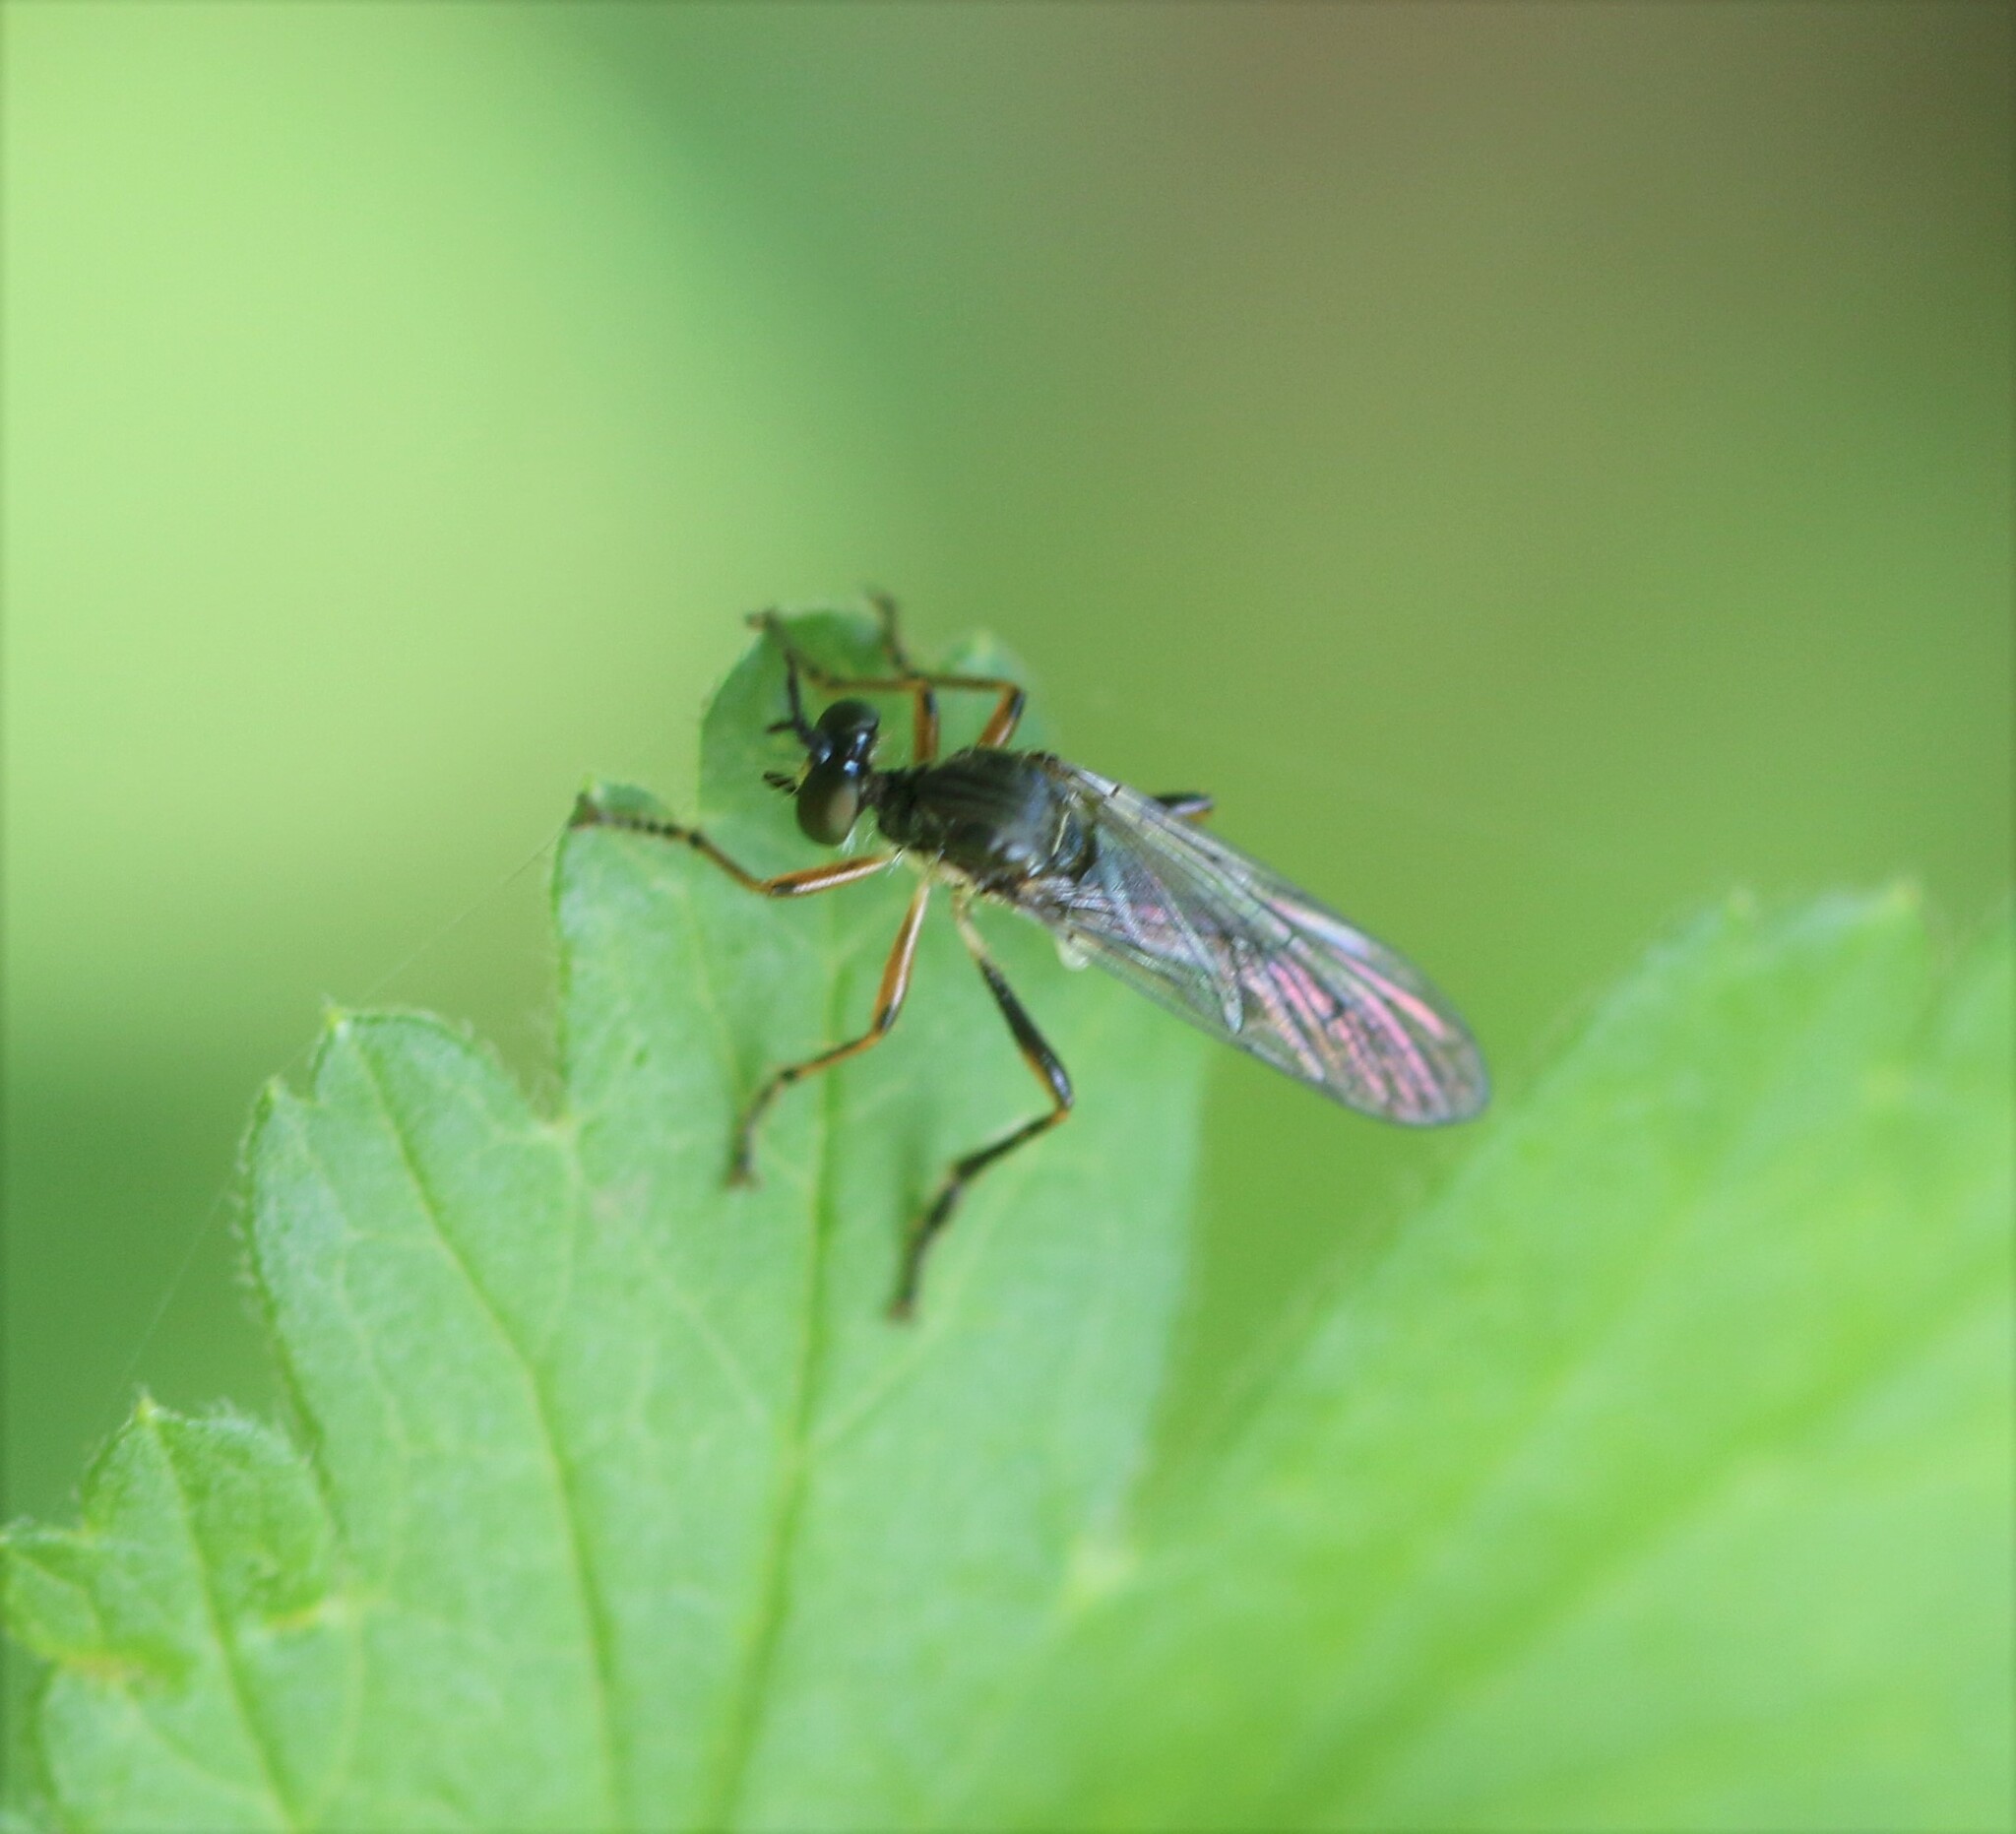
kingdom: Animalia
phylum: Arthropoda
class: Insecta
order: Diptera
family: Asilidae
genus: Dioctria
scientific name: Dioctria hyalipennis
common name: Stripe-legged robberfly
